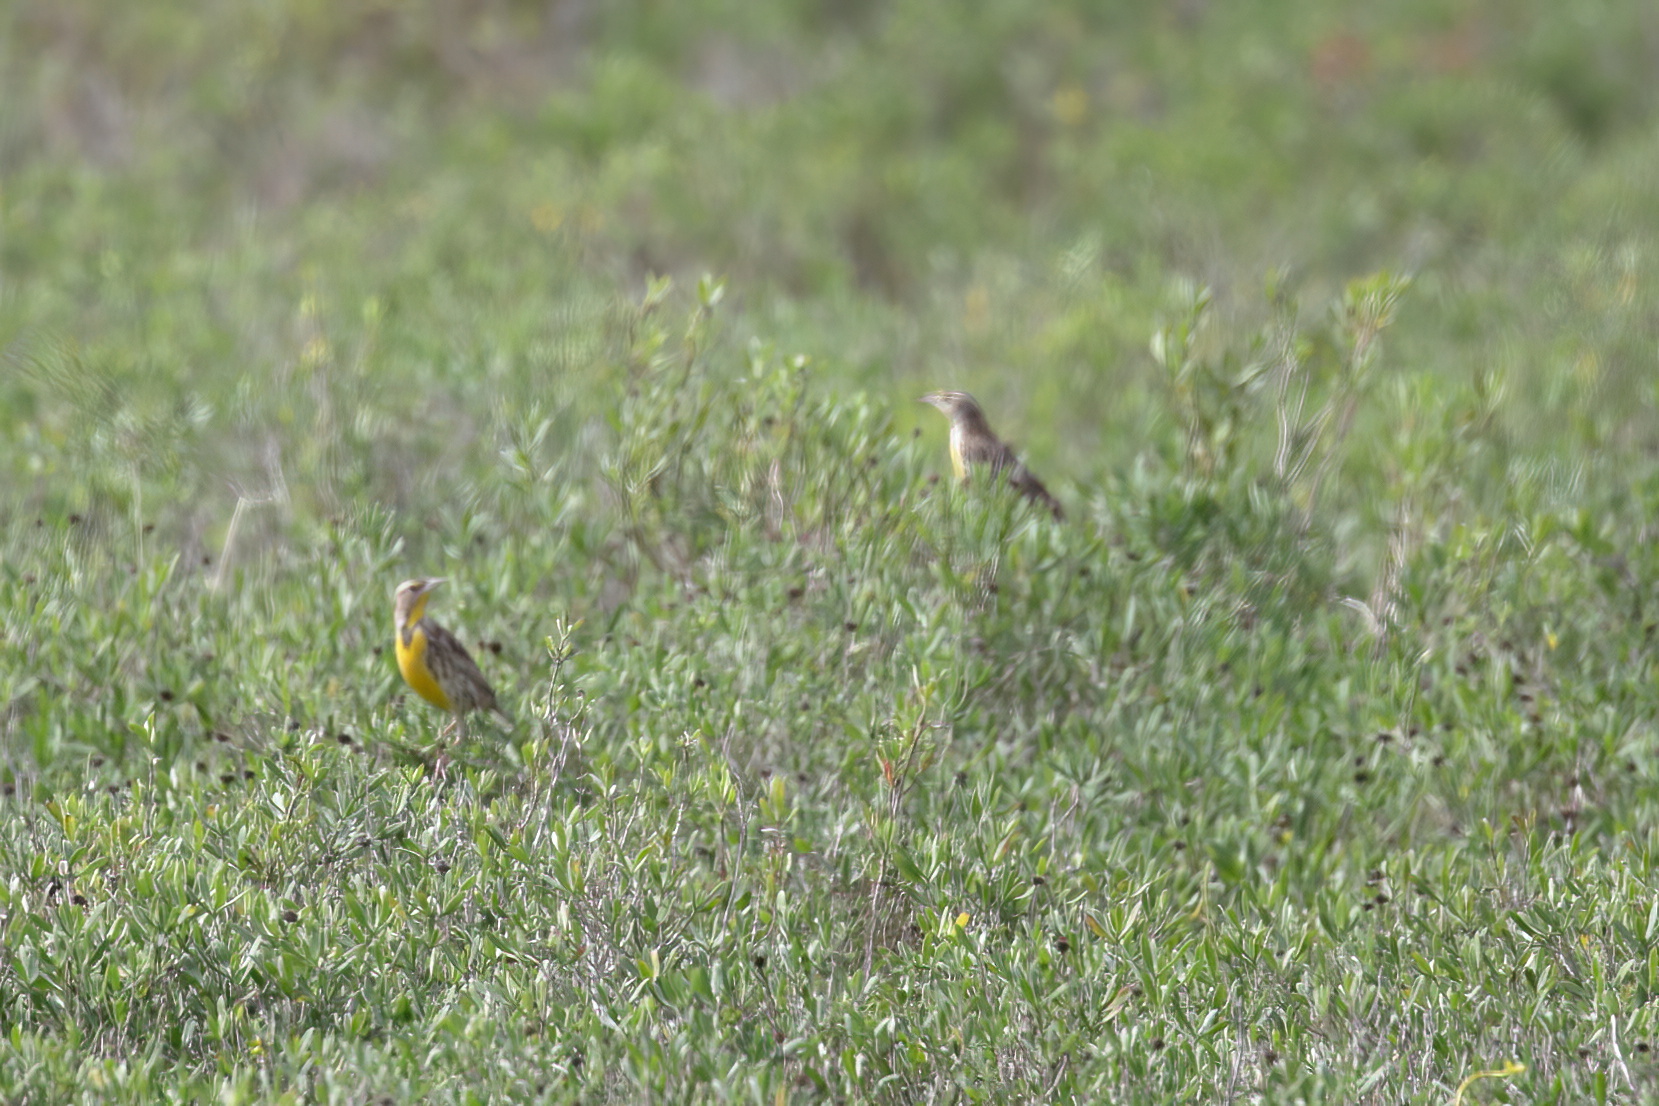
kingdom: Animalia
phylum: Chordata
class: Aves
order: Passeriformes
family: Icteridae
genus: Sturnella
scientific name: Sturnella magna
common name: Eastern meadowlark
